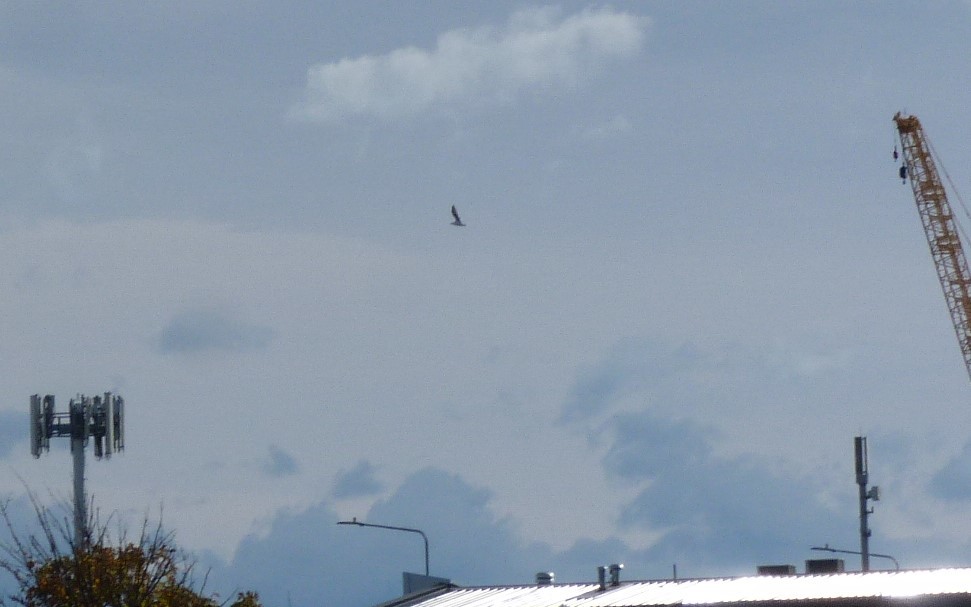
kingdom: Animalia
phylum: Chordata
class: Aves
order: Charadriiformes
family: Laridae
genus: Larus
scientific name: Larus dominicanus
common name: Kelp gull
